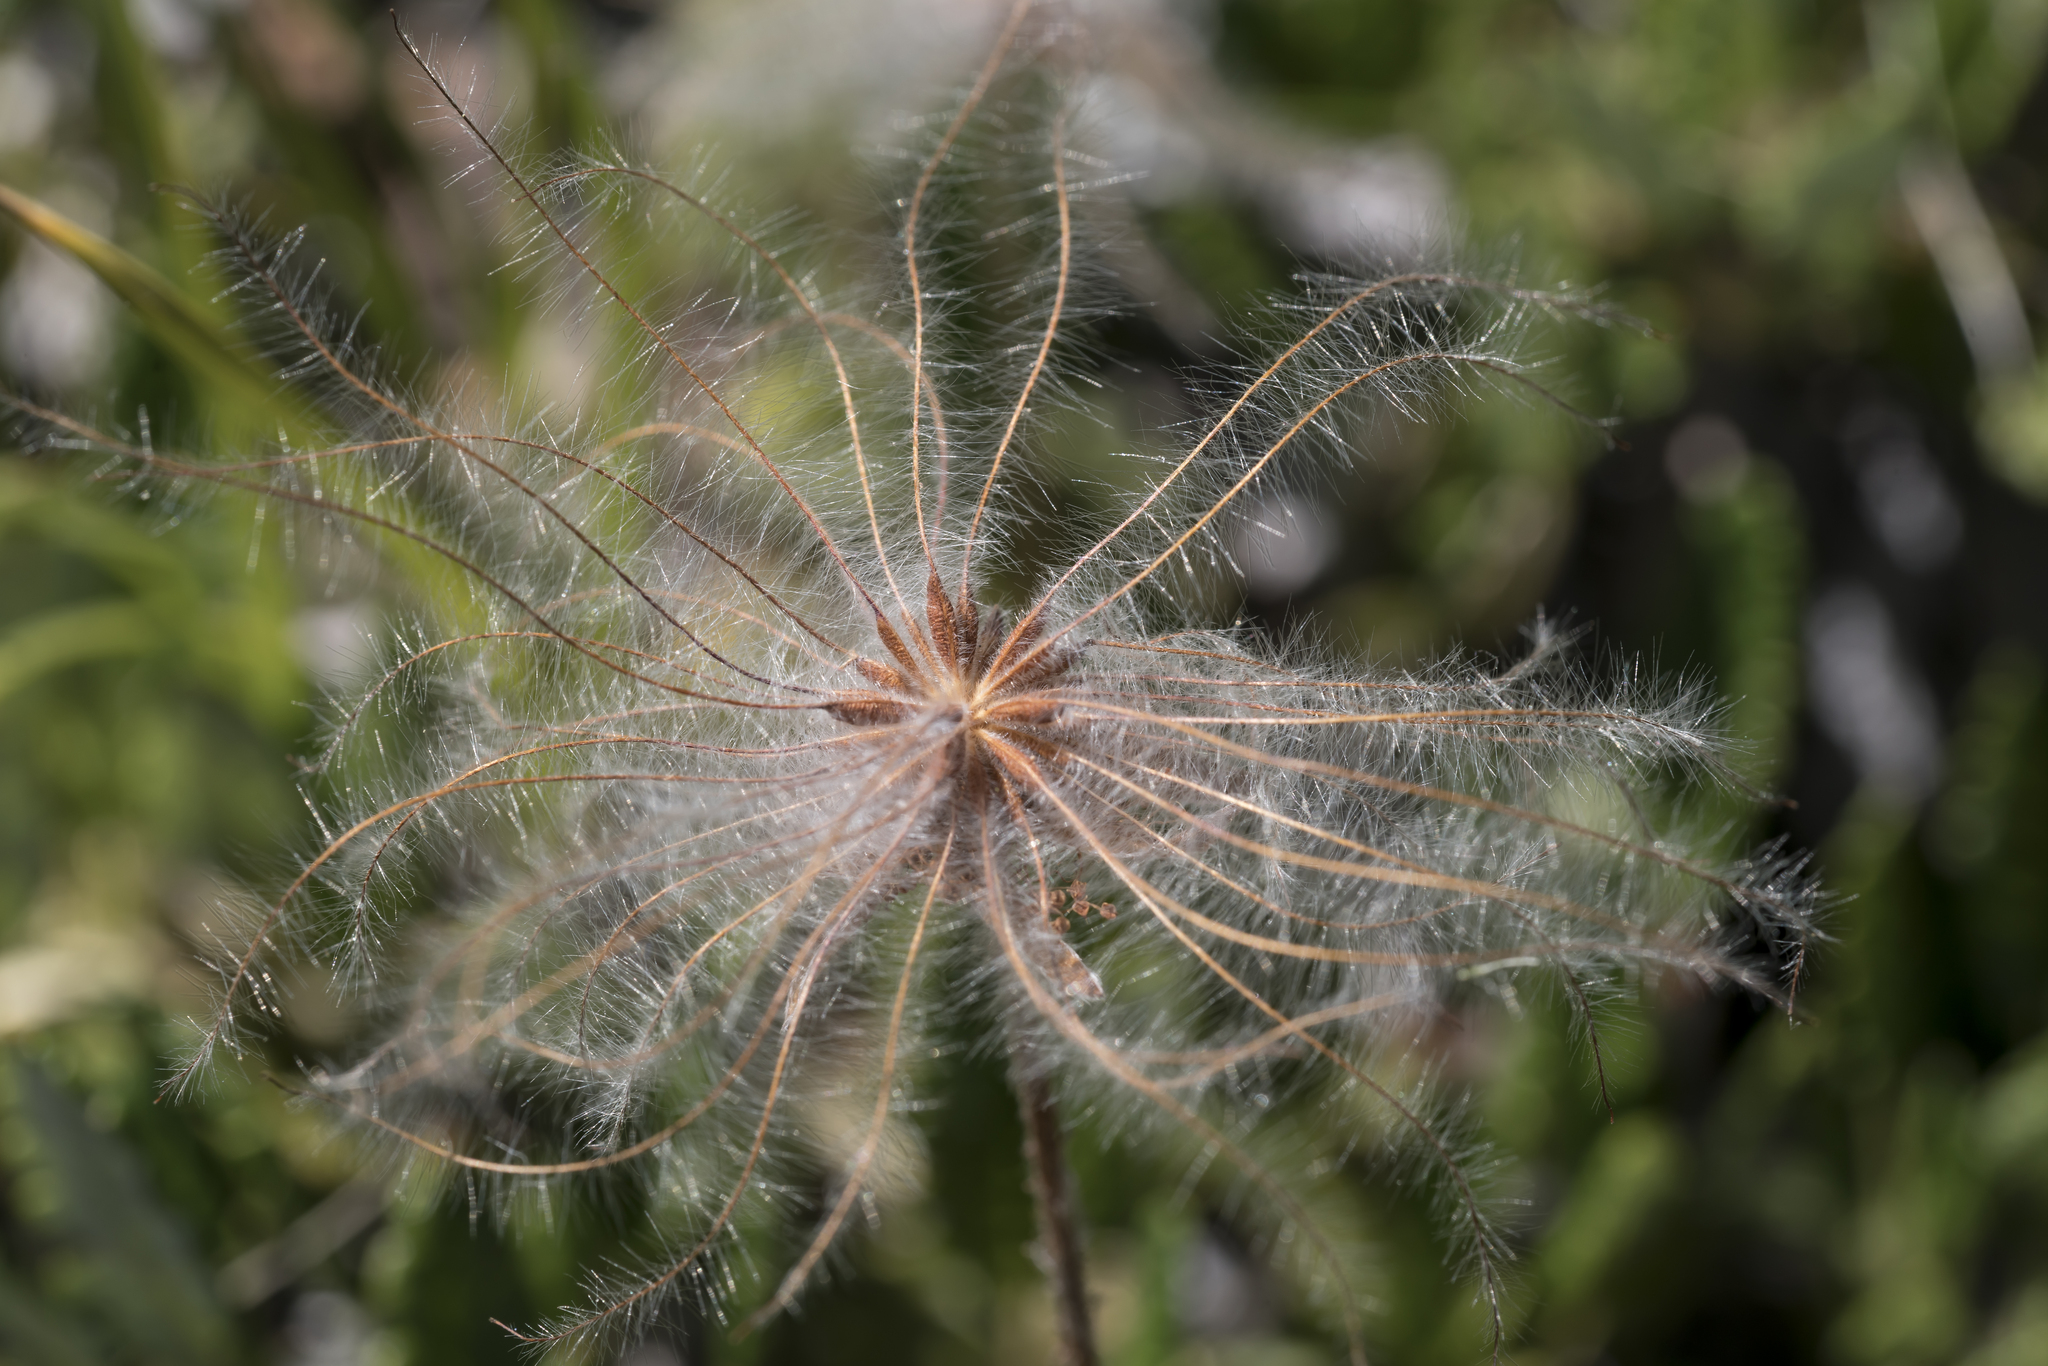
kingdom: Plantae
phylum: Tracheophyta
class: Magnoliopsida
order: Rosales
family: Rosaceae
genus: Dryas
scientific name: Dryas octopetala
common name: Eight-petal mountain-avens
